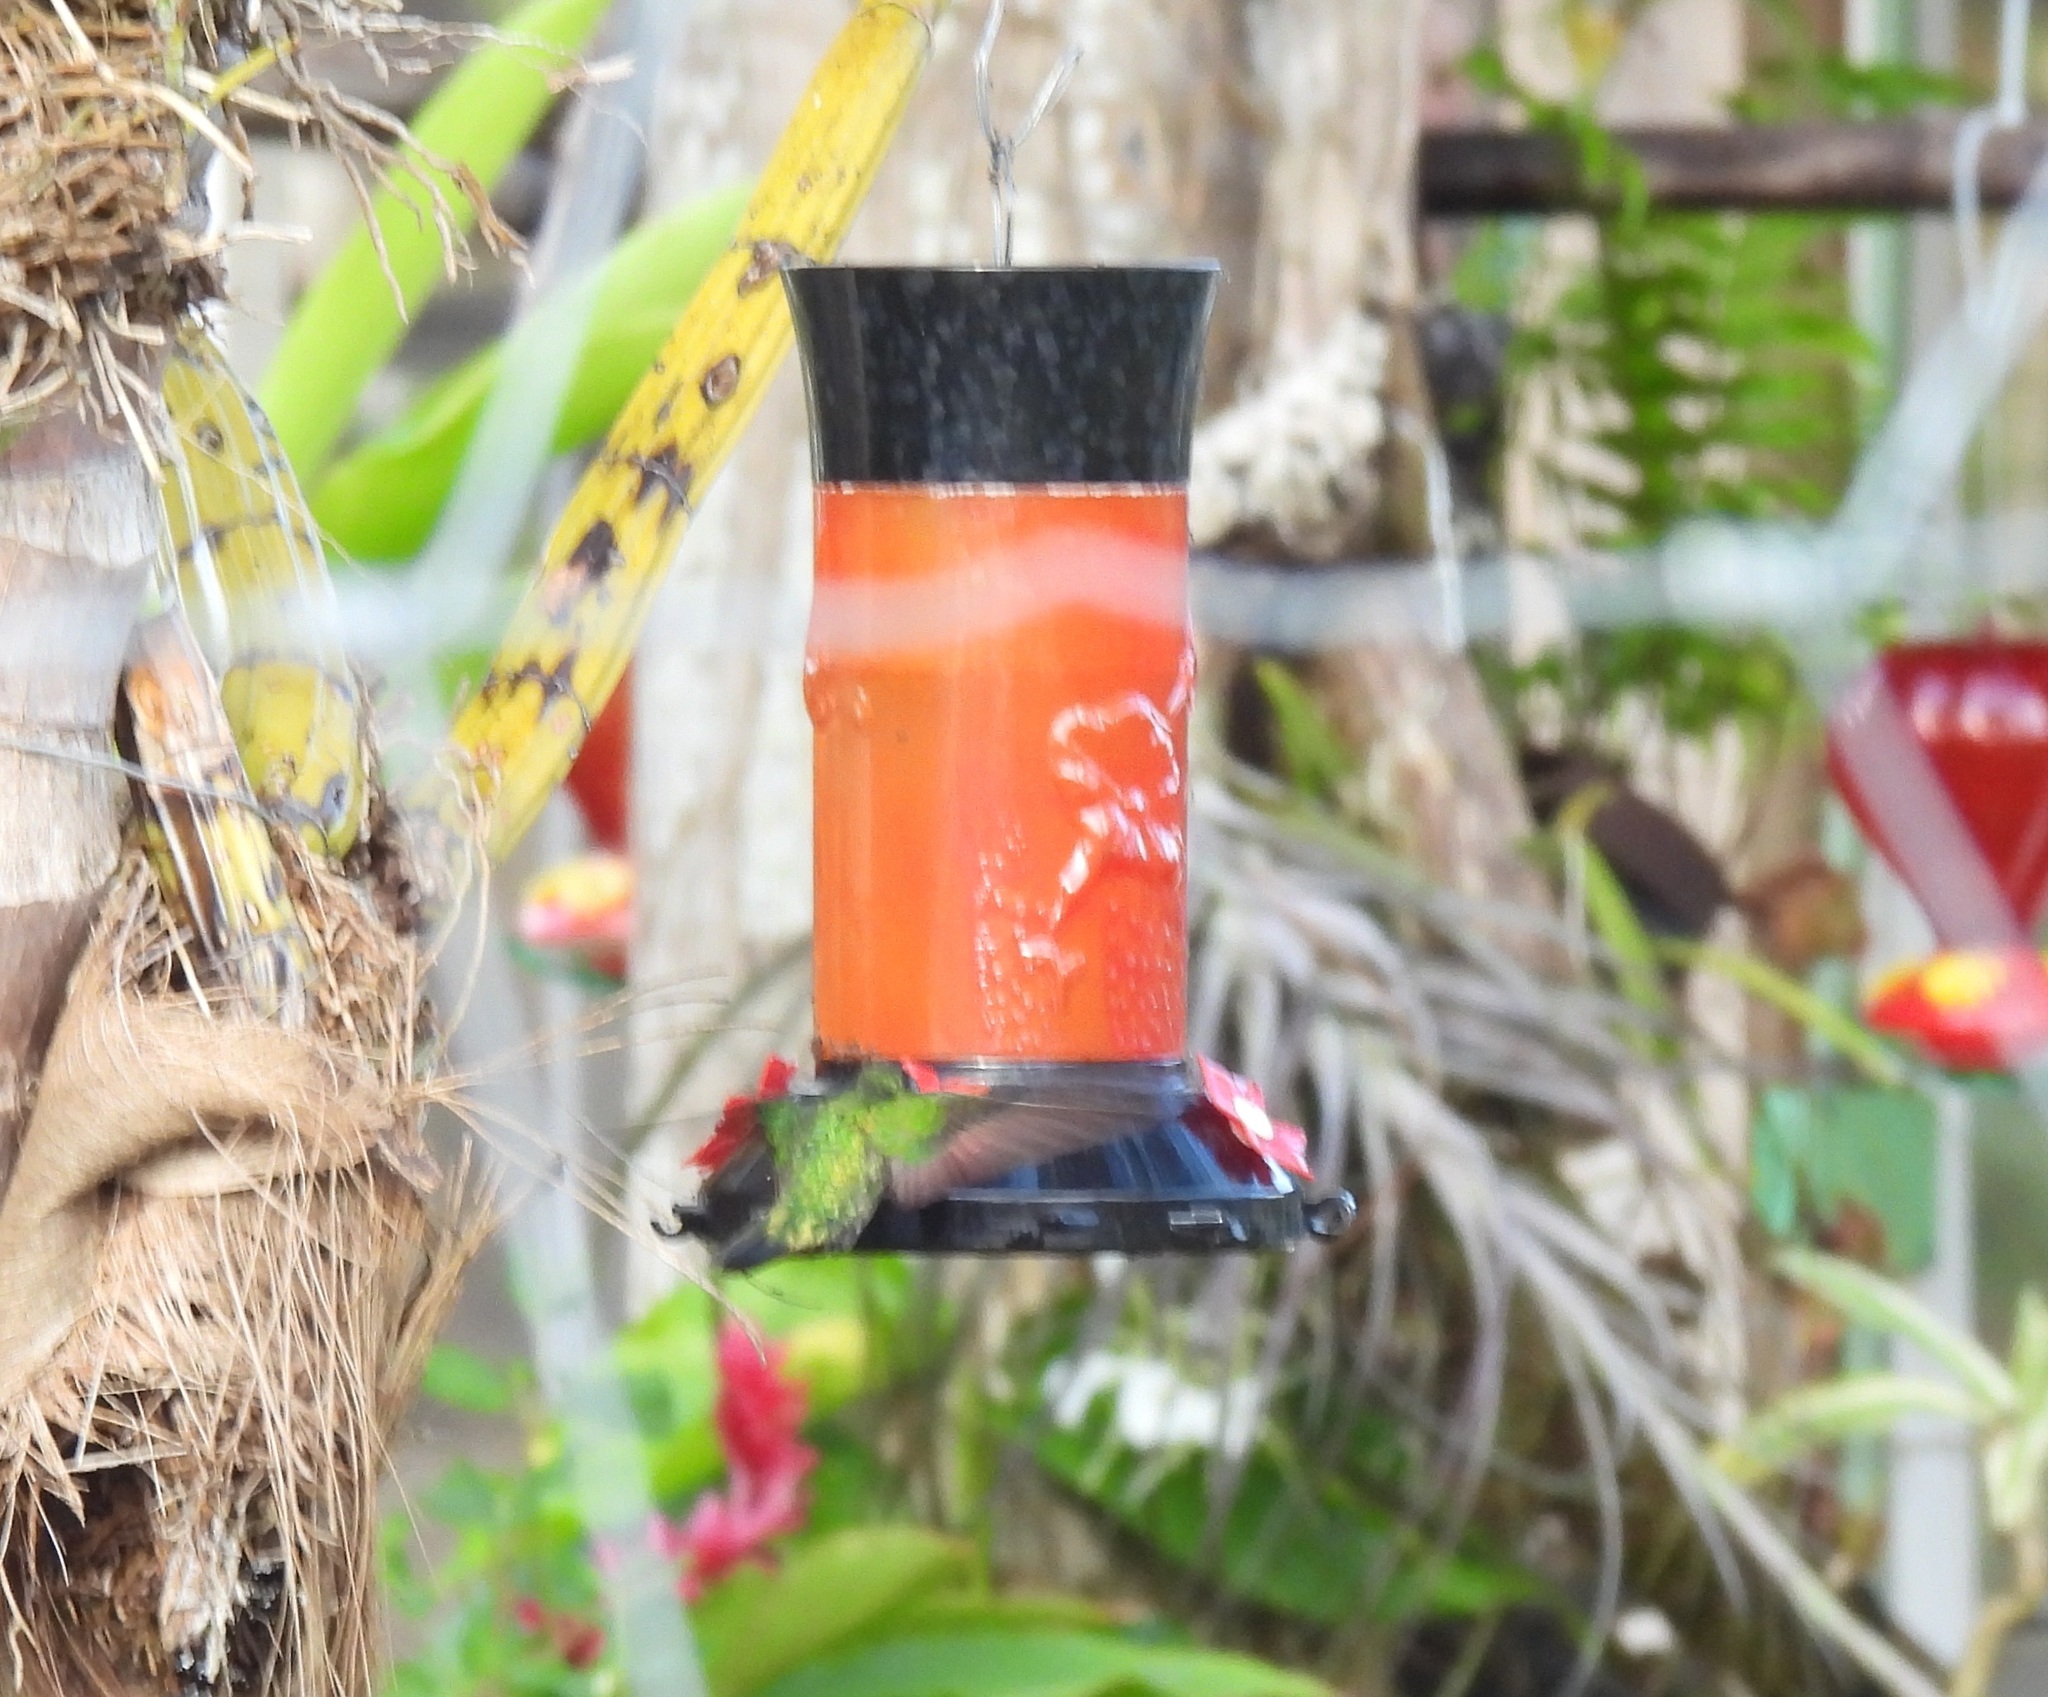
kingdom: Animalia
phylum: Chordata
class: Aves
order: Apodiformes
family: Trochilidae
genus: Anthracothorax
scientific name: Anthracothorax prevostii
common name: Green-breasted mango
